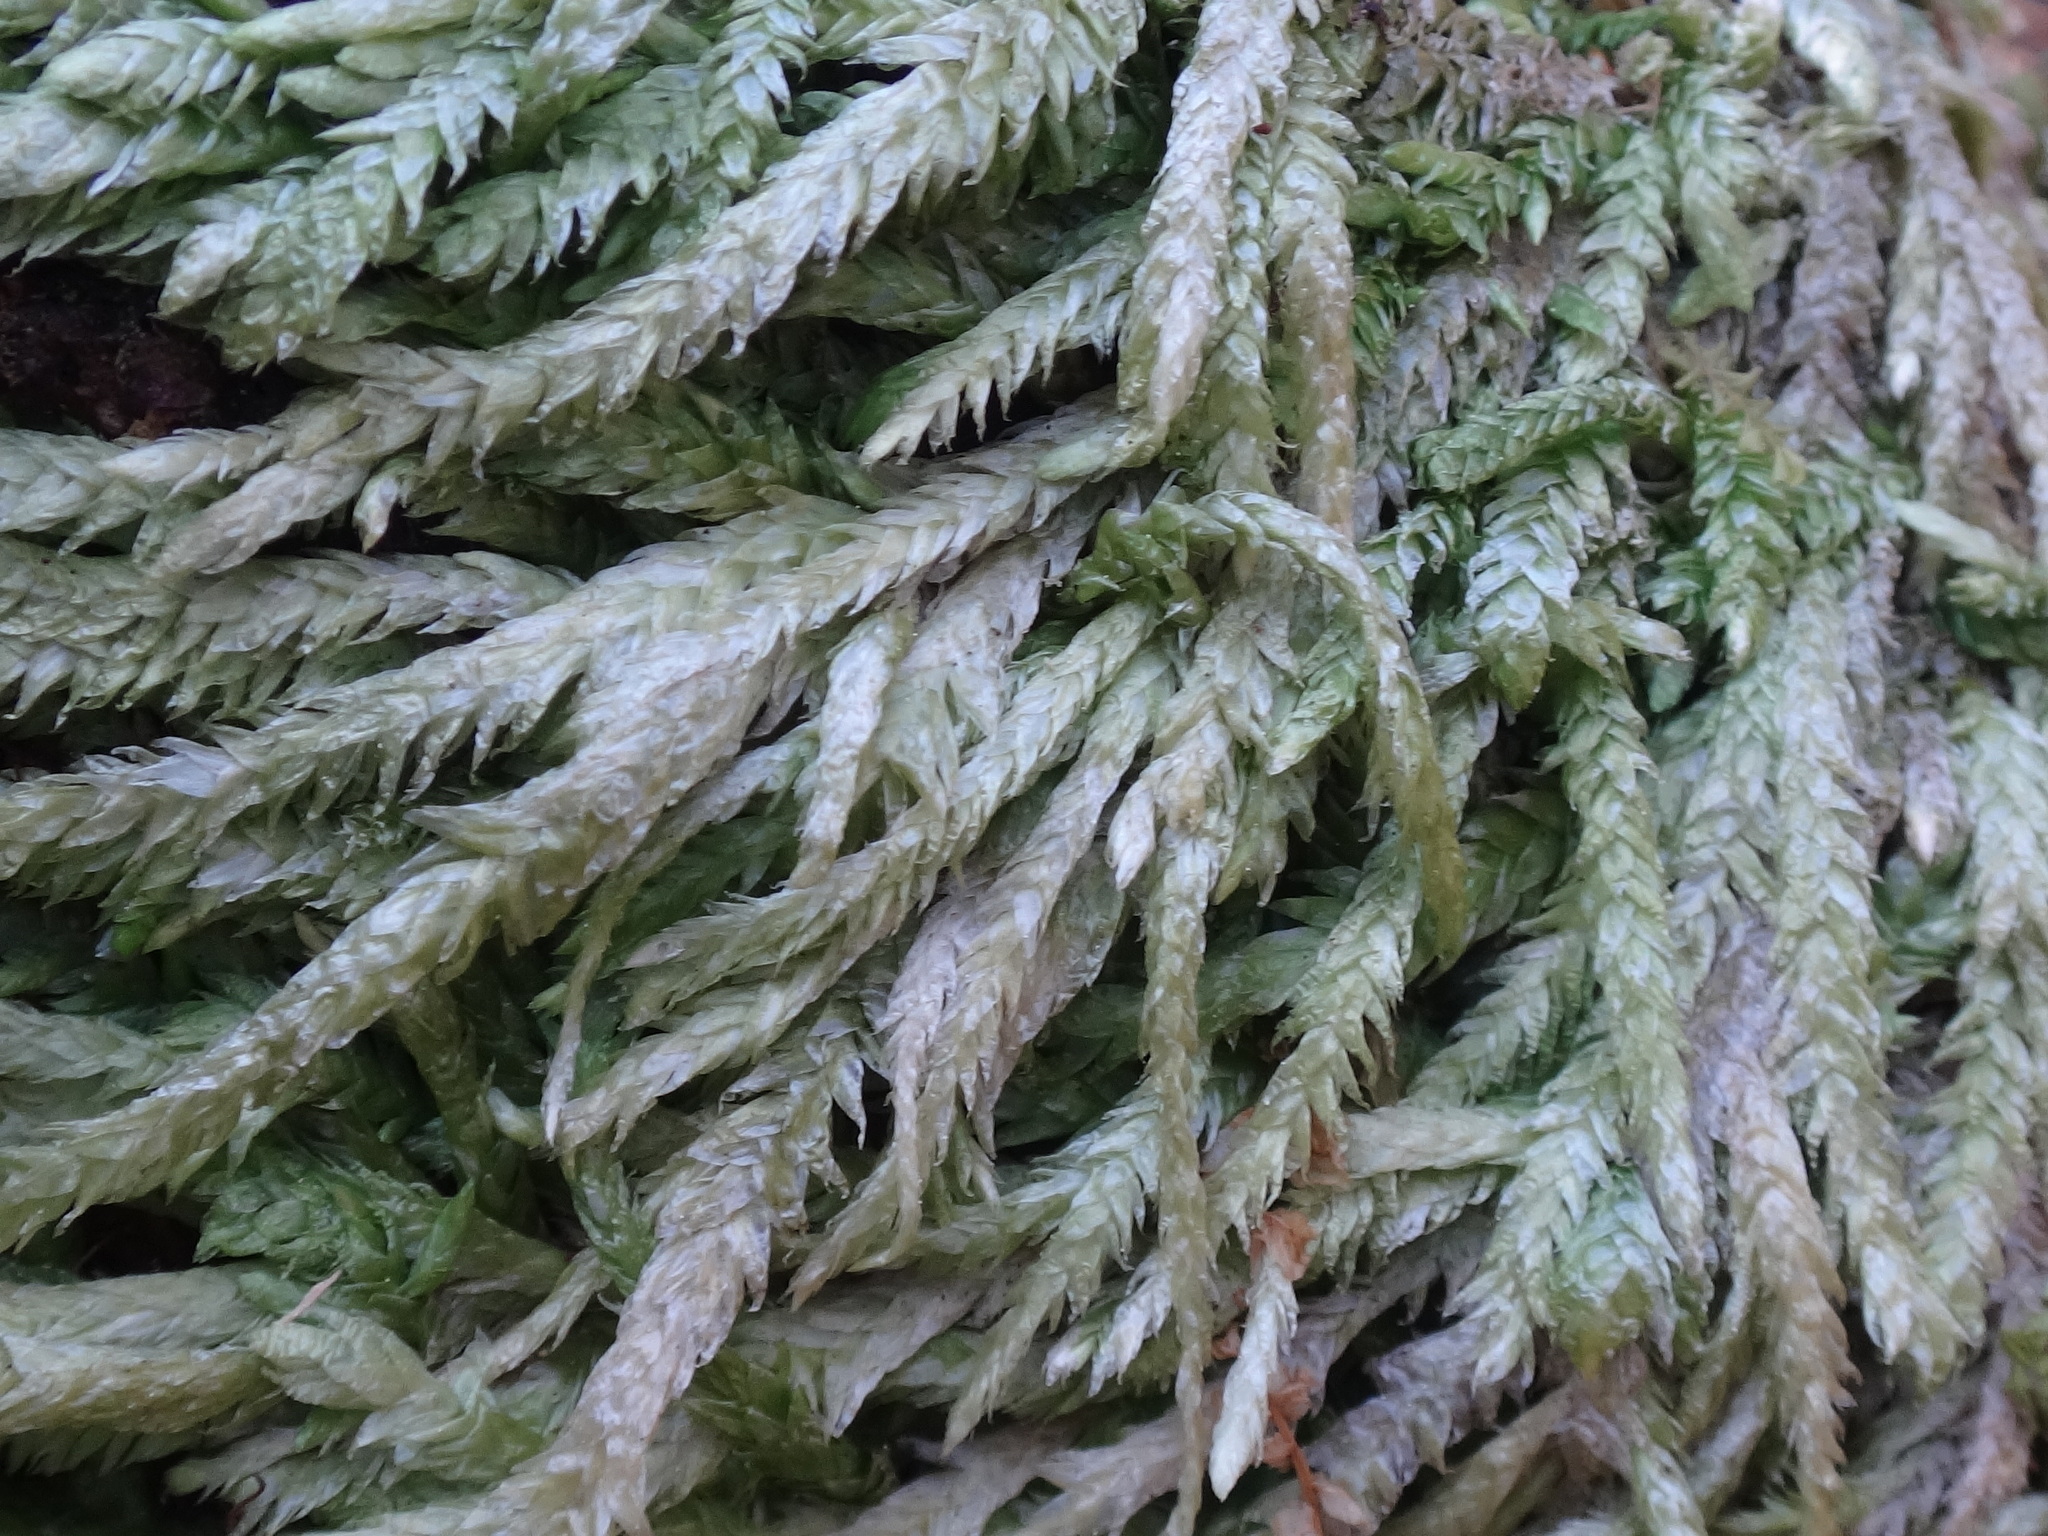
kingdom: Plantae
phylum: Bryophyta
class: Bryopsida
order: Hypnales
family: Plagiotheciaceae
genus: Plagiothecium
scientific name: Plagiothecium undulatum
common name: Waved silk-moss
